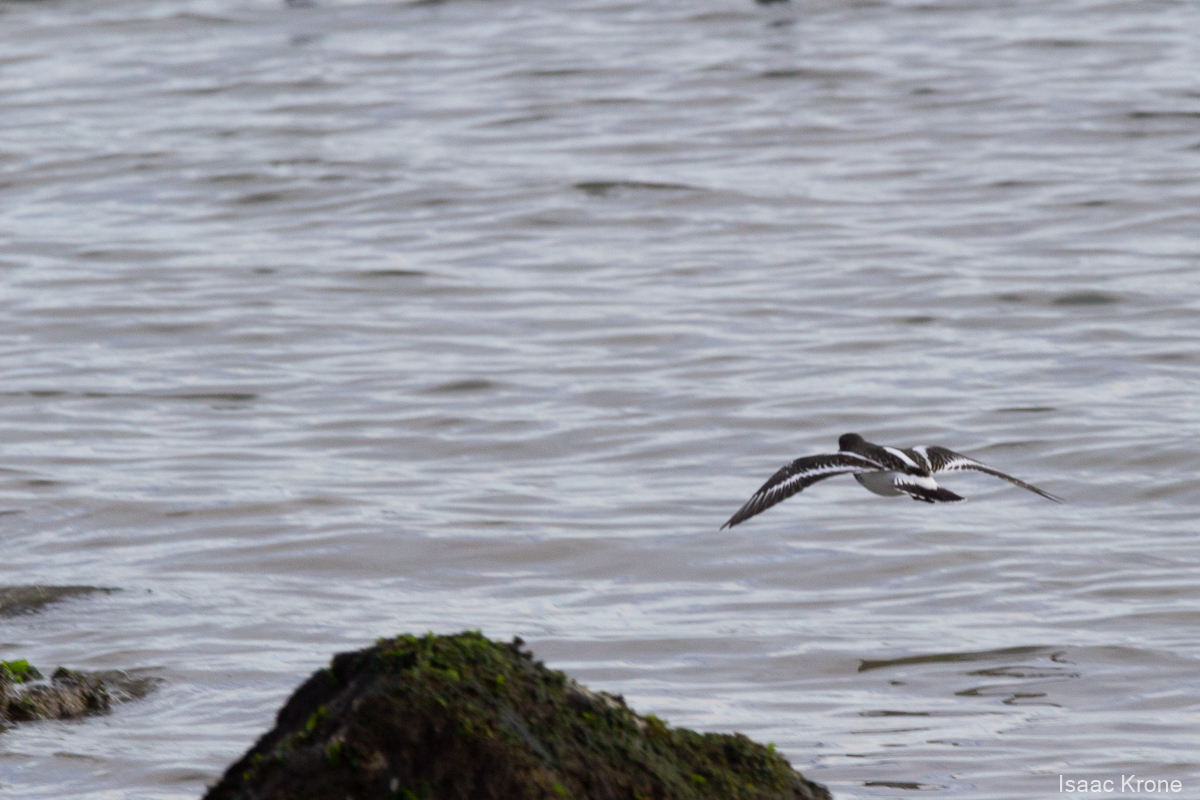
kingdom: Animalia
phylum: Chordata
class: Aves
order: Charadriiformes
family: Scolopacidae
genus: Arenaria
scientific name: Arenaria melanocephala
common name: Black turnstone
